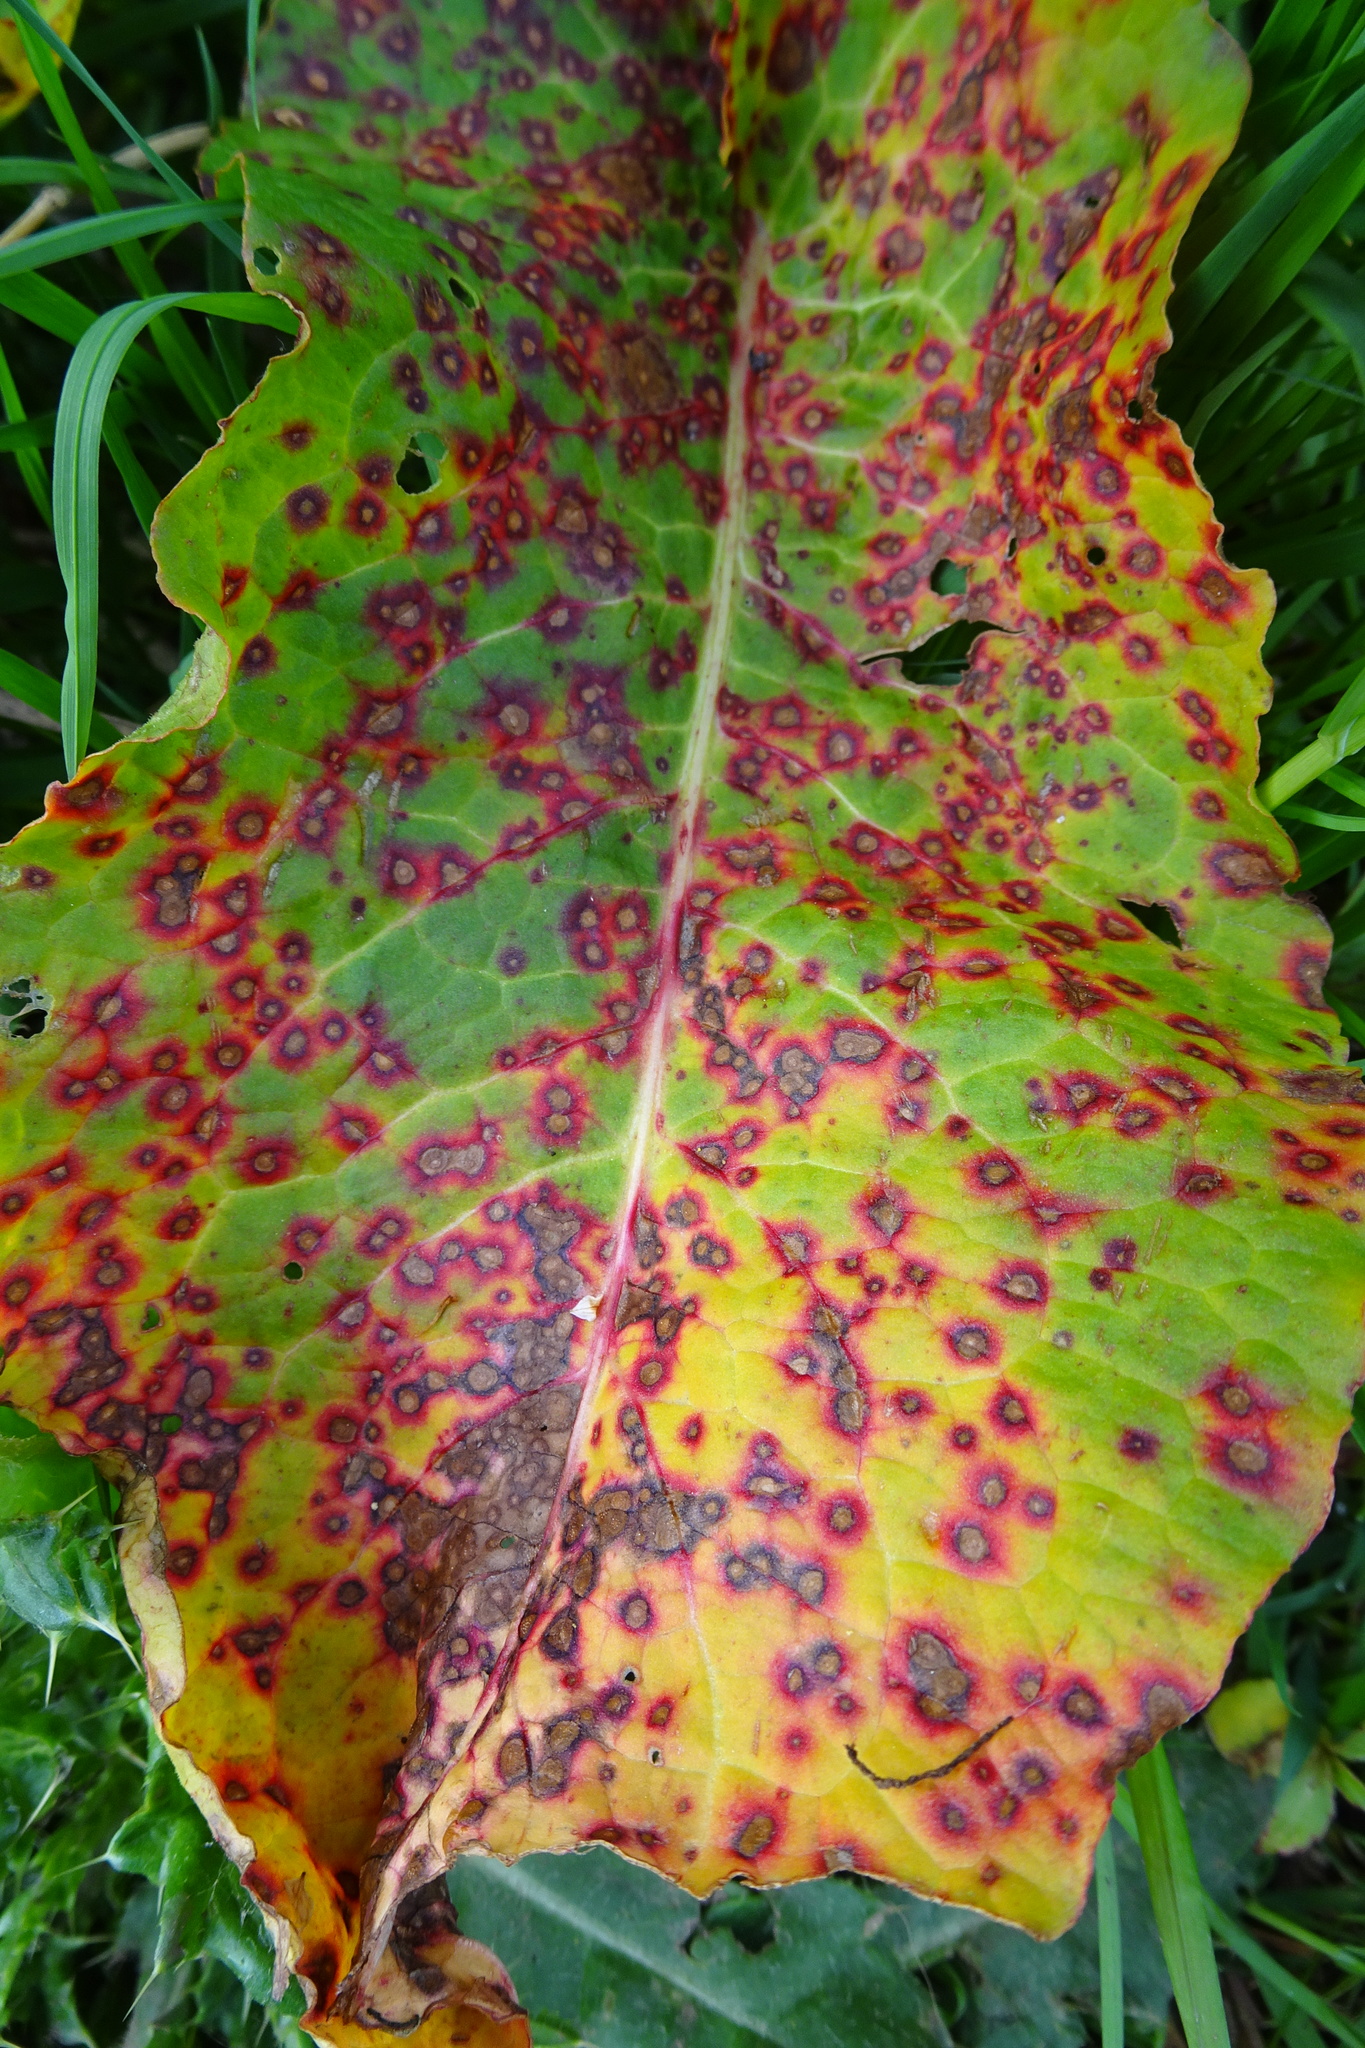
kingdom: Fungi
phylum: Ascomycota
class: Dothideomycetes
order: Mycosphaerellales
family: Mycosphaerellaceae
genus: Ramularia
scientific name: Ramularia rubella
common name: Red dock spot
